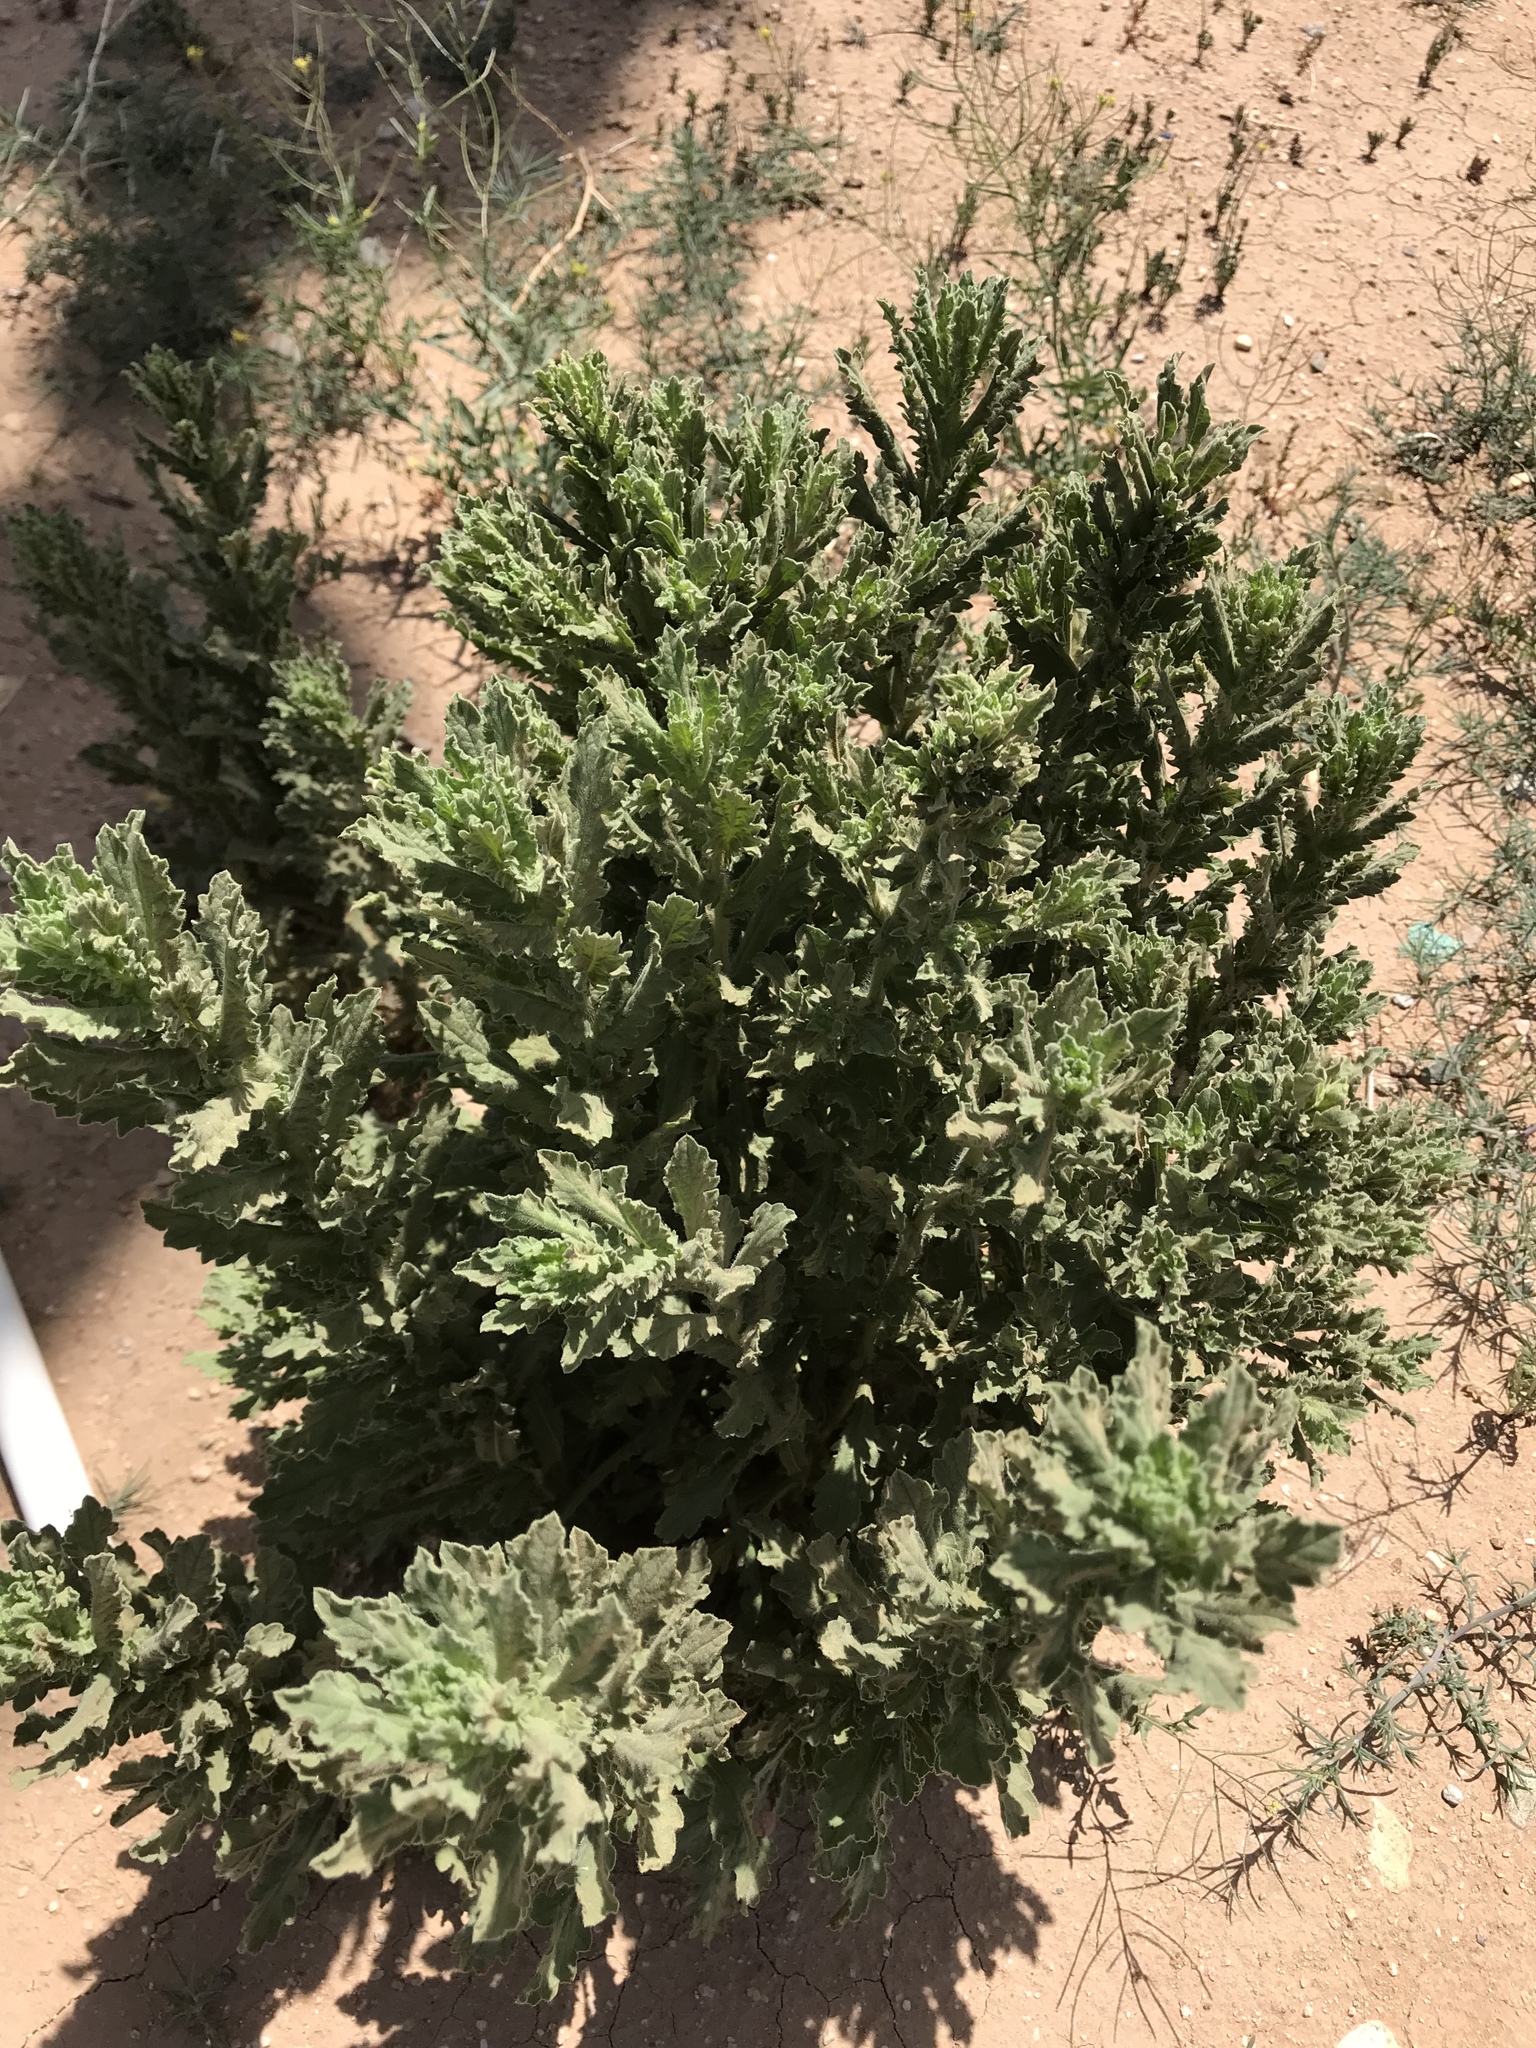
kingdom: Plantae
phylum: Tracheophyta
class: Magnoliopsida
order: Asterales
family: Asteraceae
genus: Laennecia
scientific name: Laennecia coulteri
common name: Coulter's woolwort
